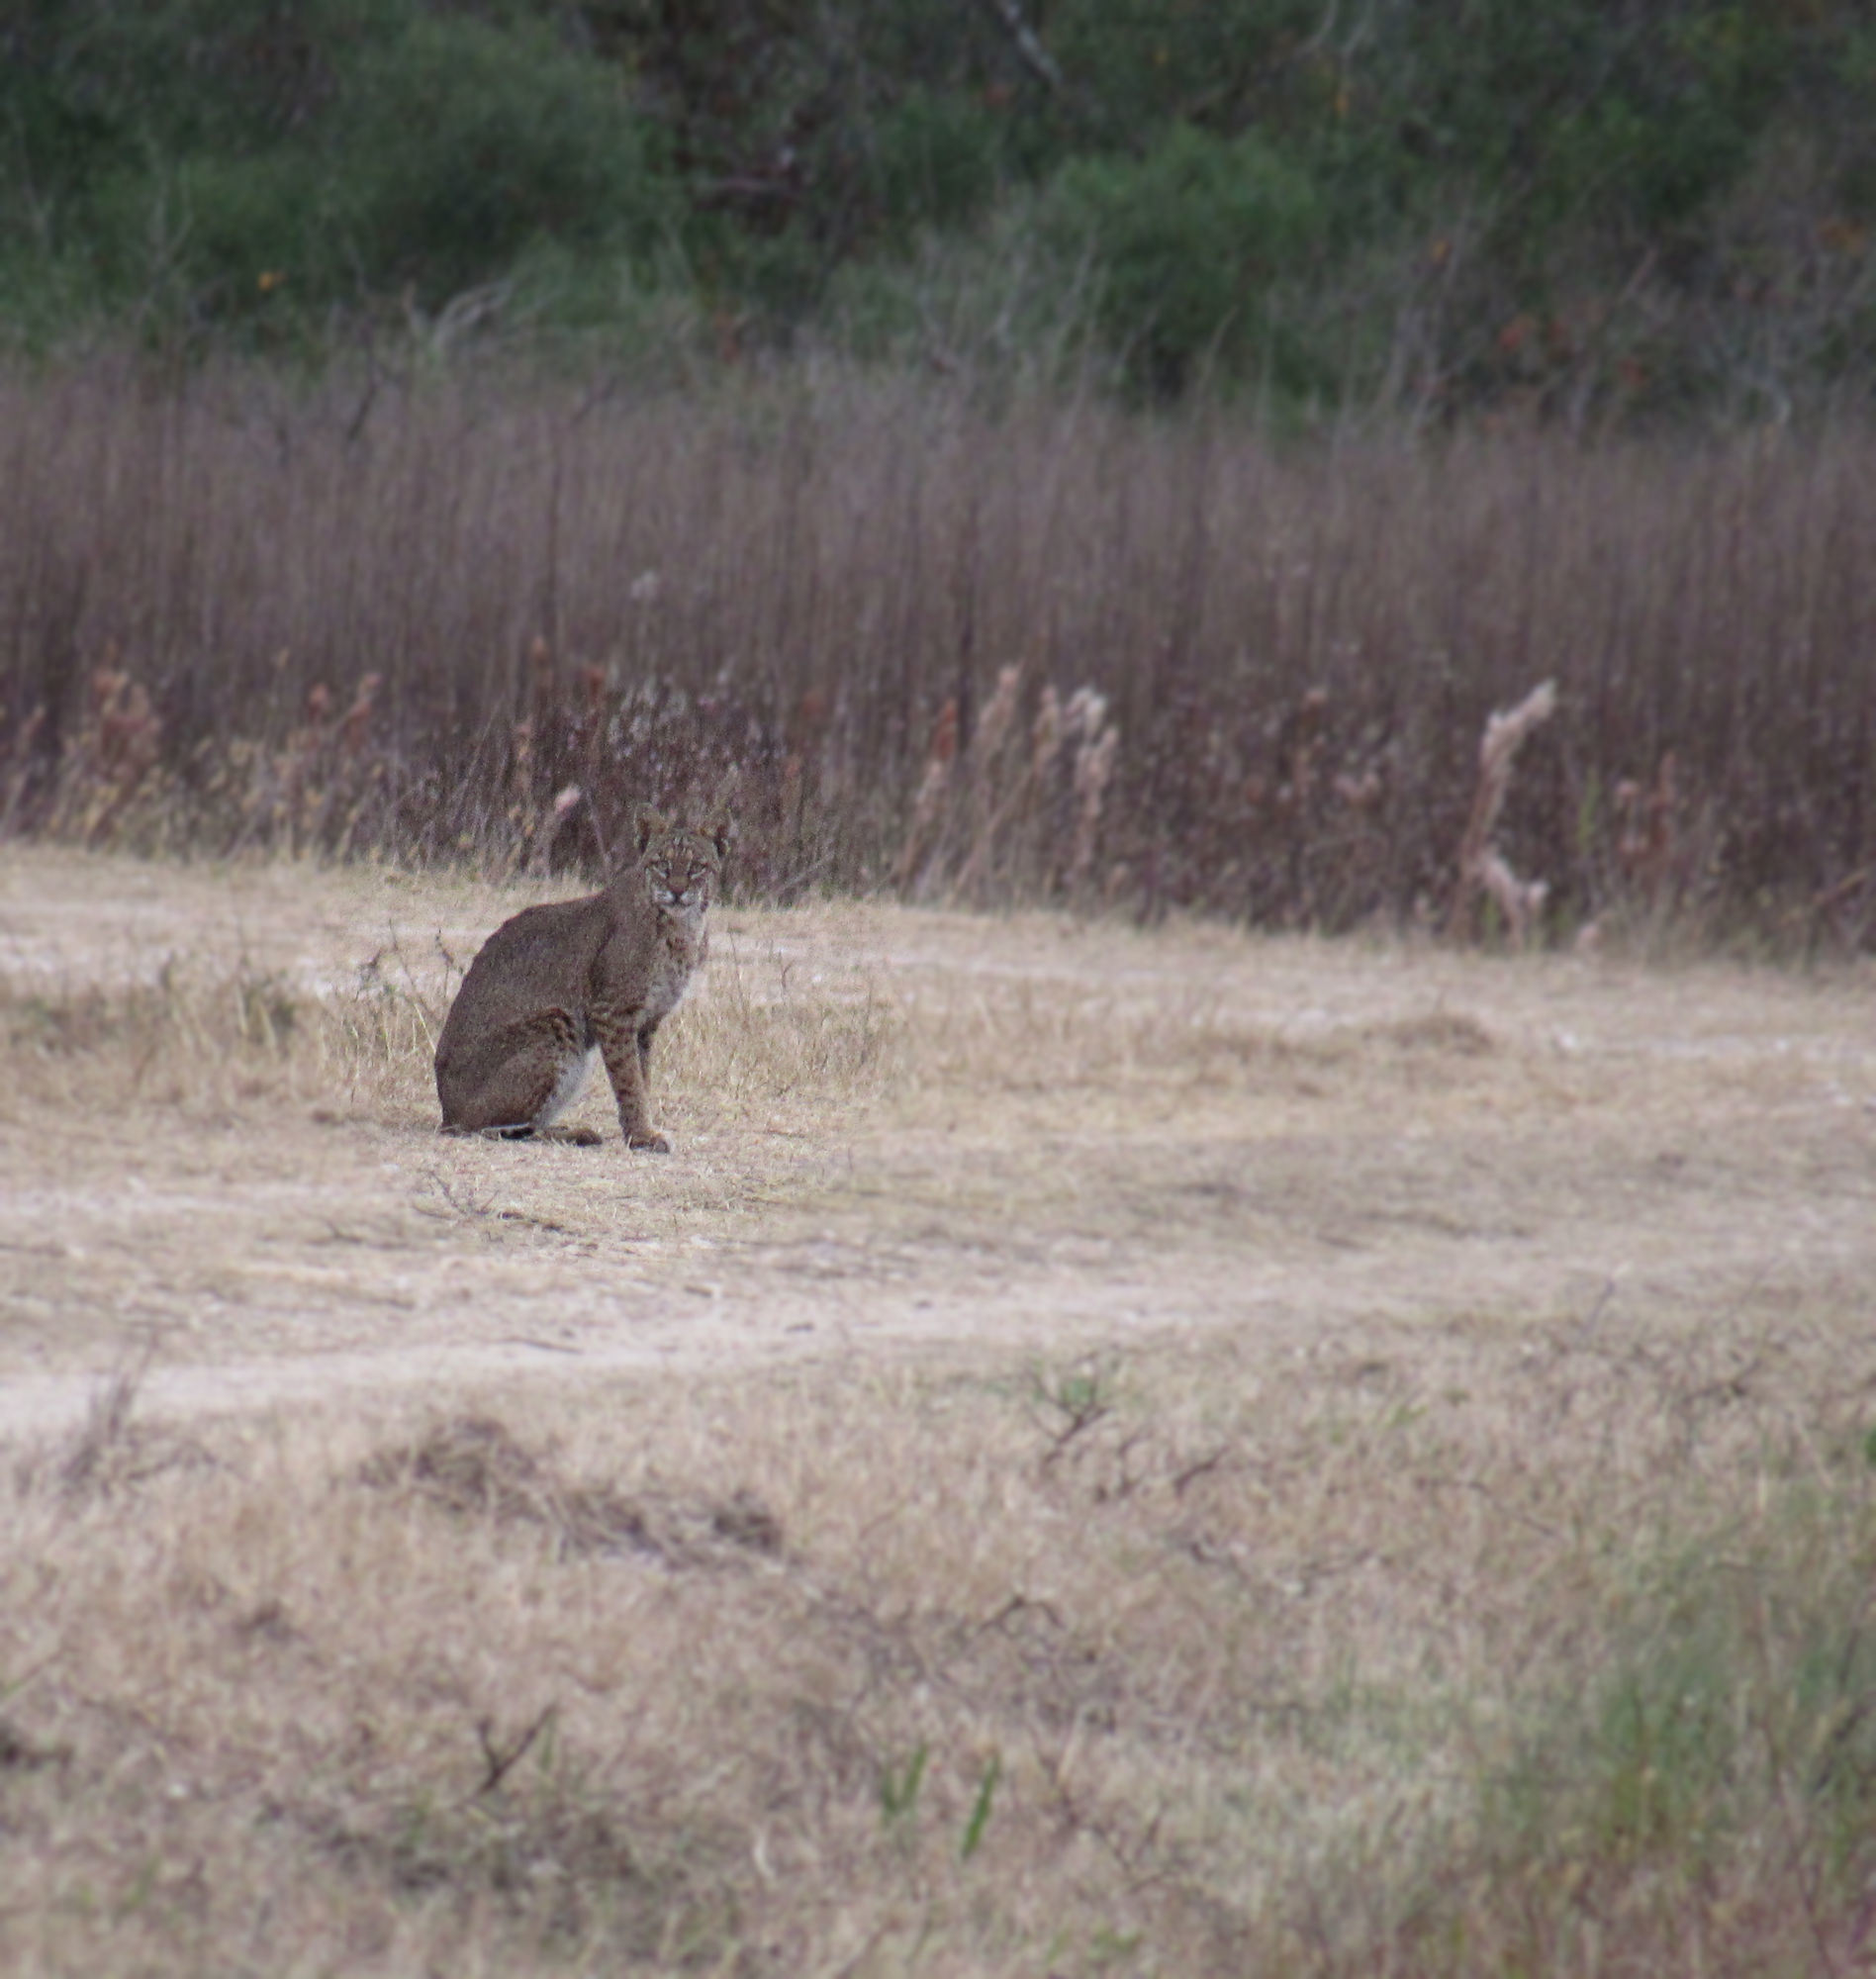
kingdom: Animalia
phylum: Chordata
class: Mammalia
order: Carnivora
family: Felidae
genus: Lynx
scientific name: Lynx rufus
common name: Bobcat
